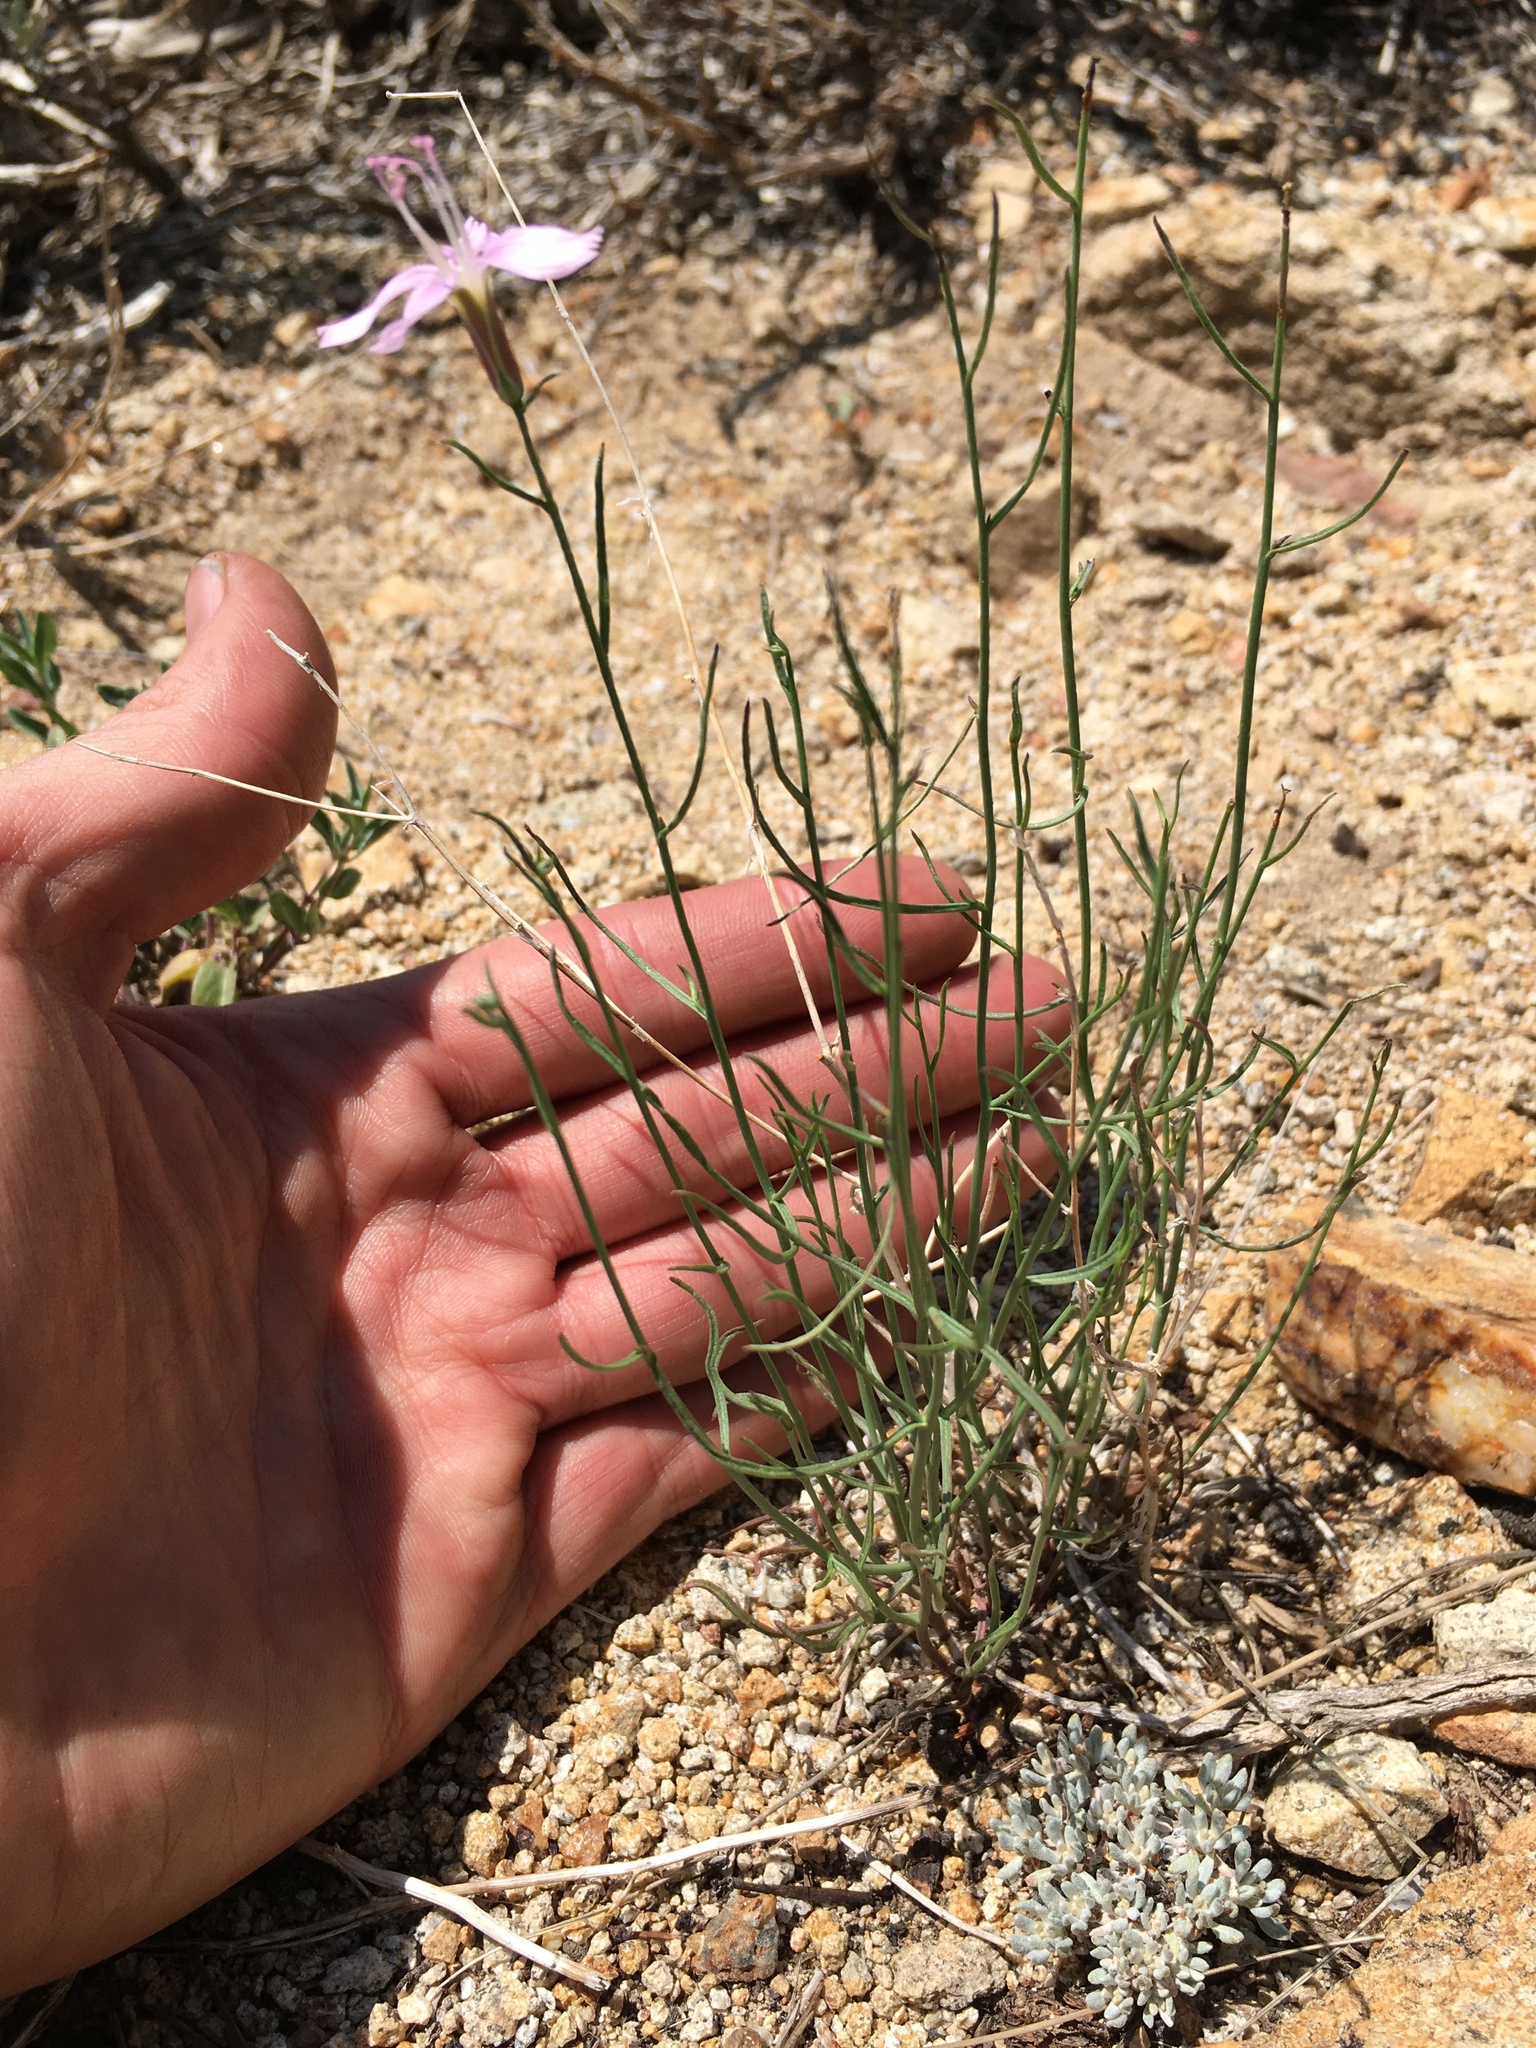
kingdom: Plantae
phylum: Tracheophyta
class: Magnoliopsida
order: Asterales
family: Asteraceae
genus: Stephanomeria
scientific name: Stephanomeria tenuifolia
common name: Slender wirelettuce
